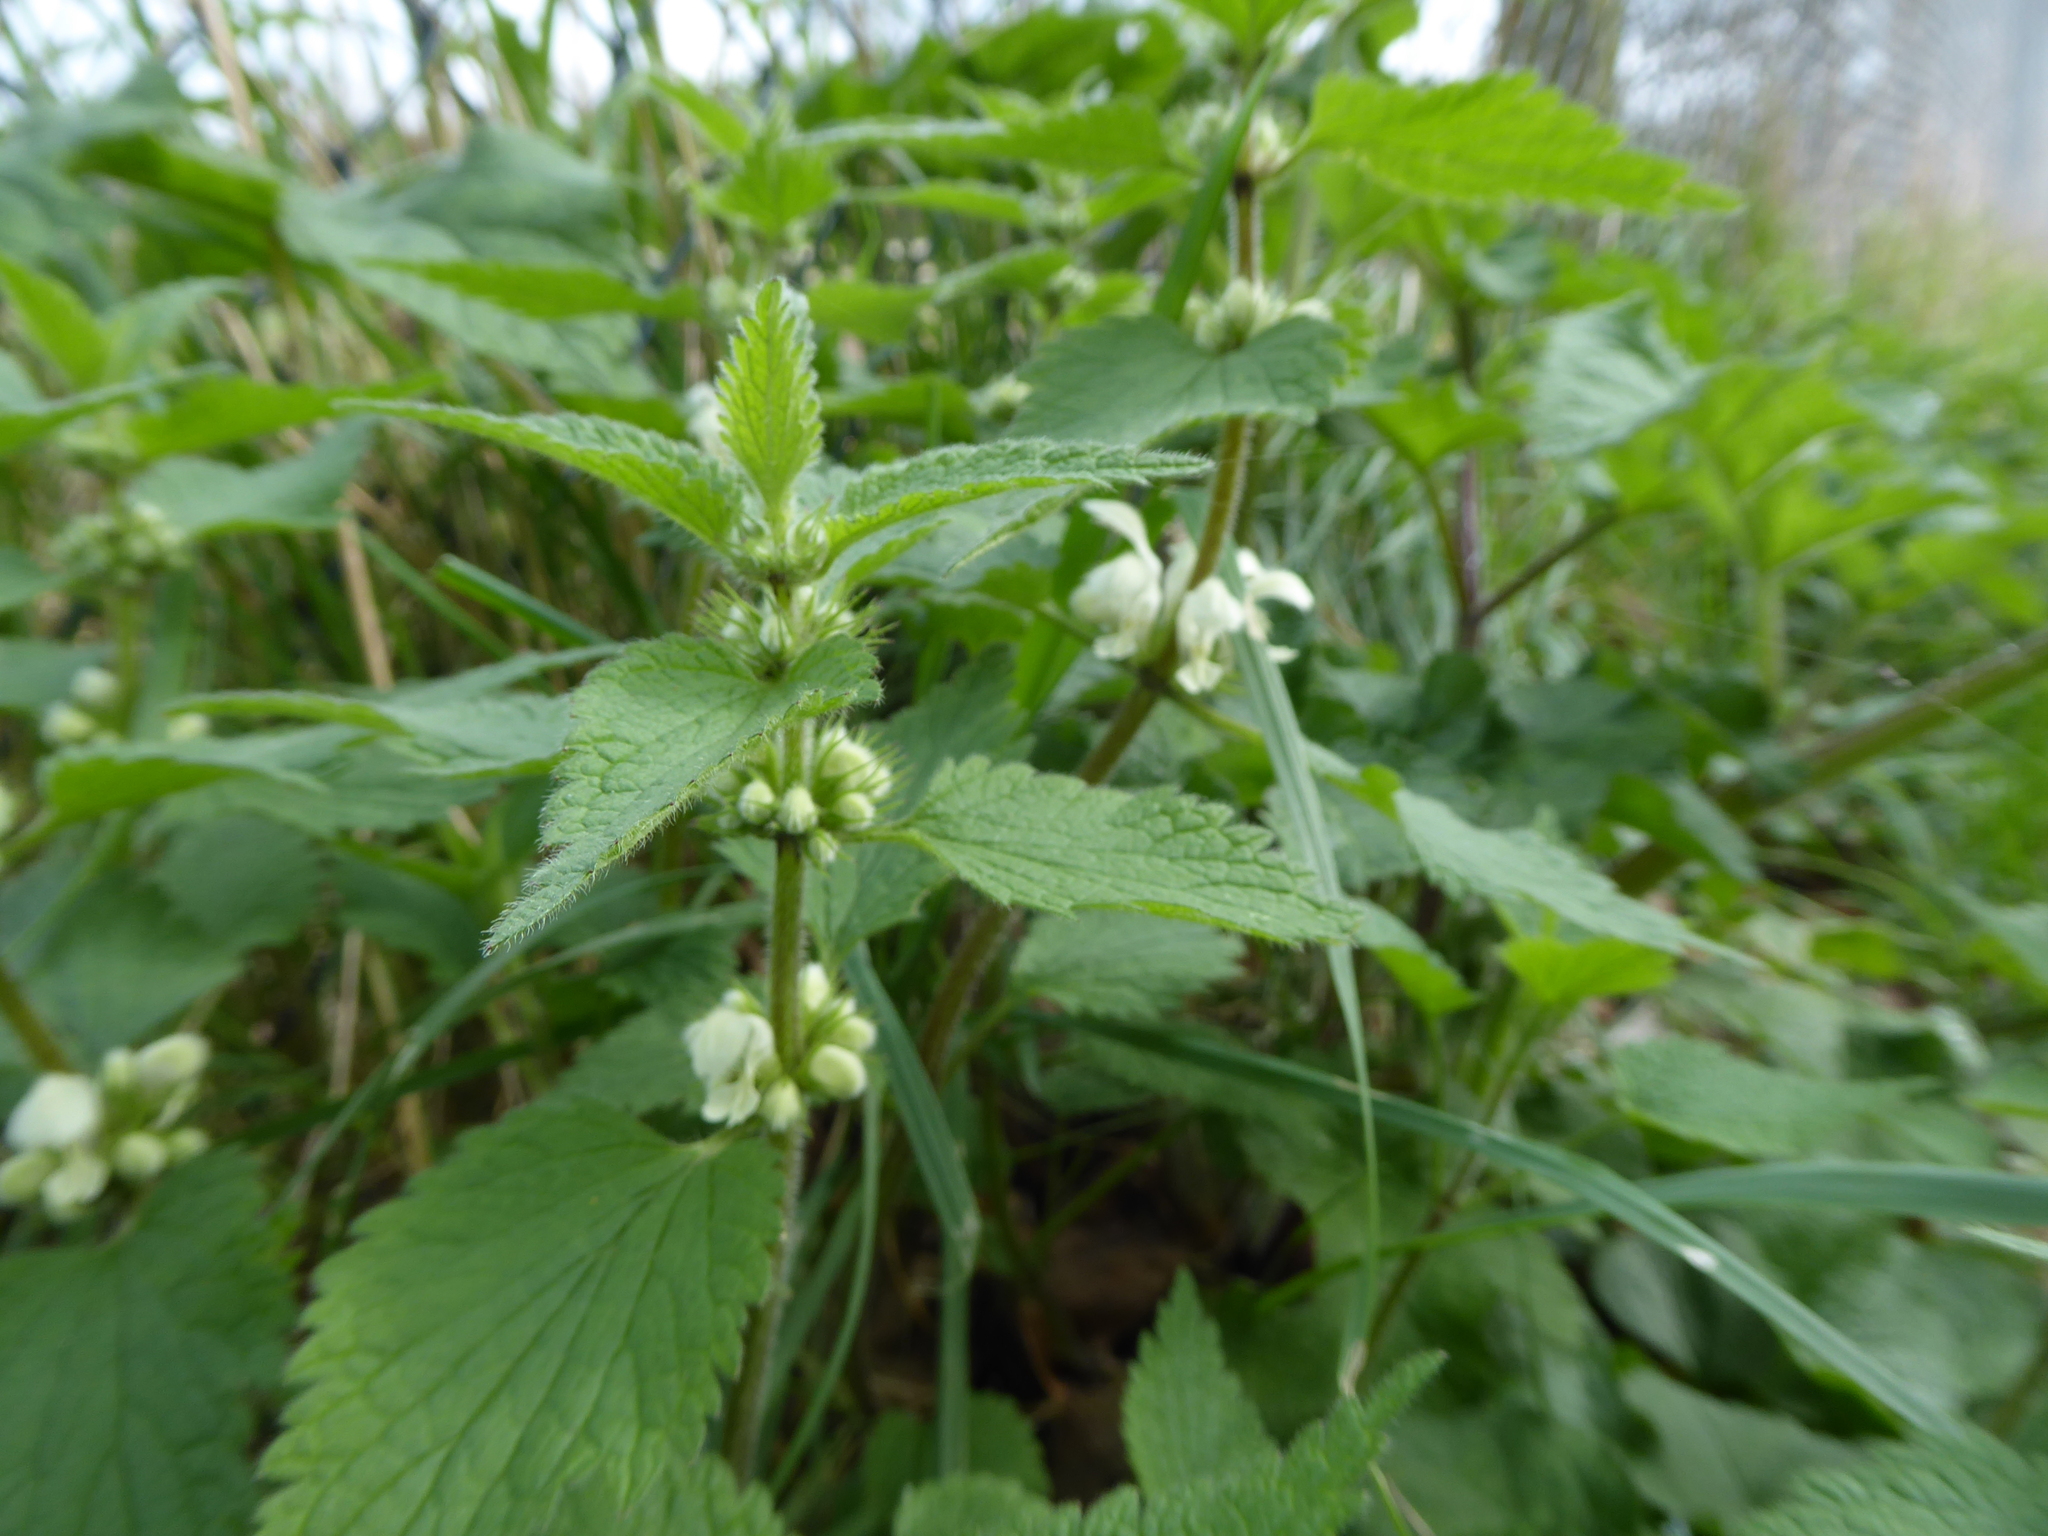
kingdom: Plantae
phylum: Tracheophyta
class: Magnoliopsida
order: Lamiales
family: Lamiaceae
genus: Lamium
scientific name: Lamium album
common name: White dead-nettle
